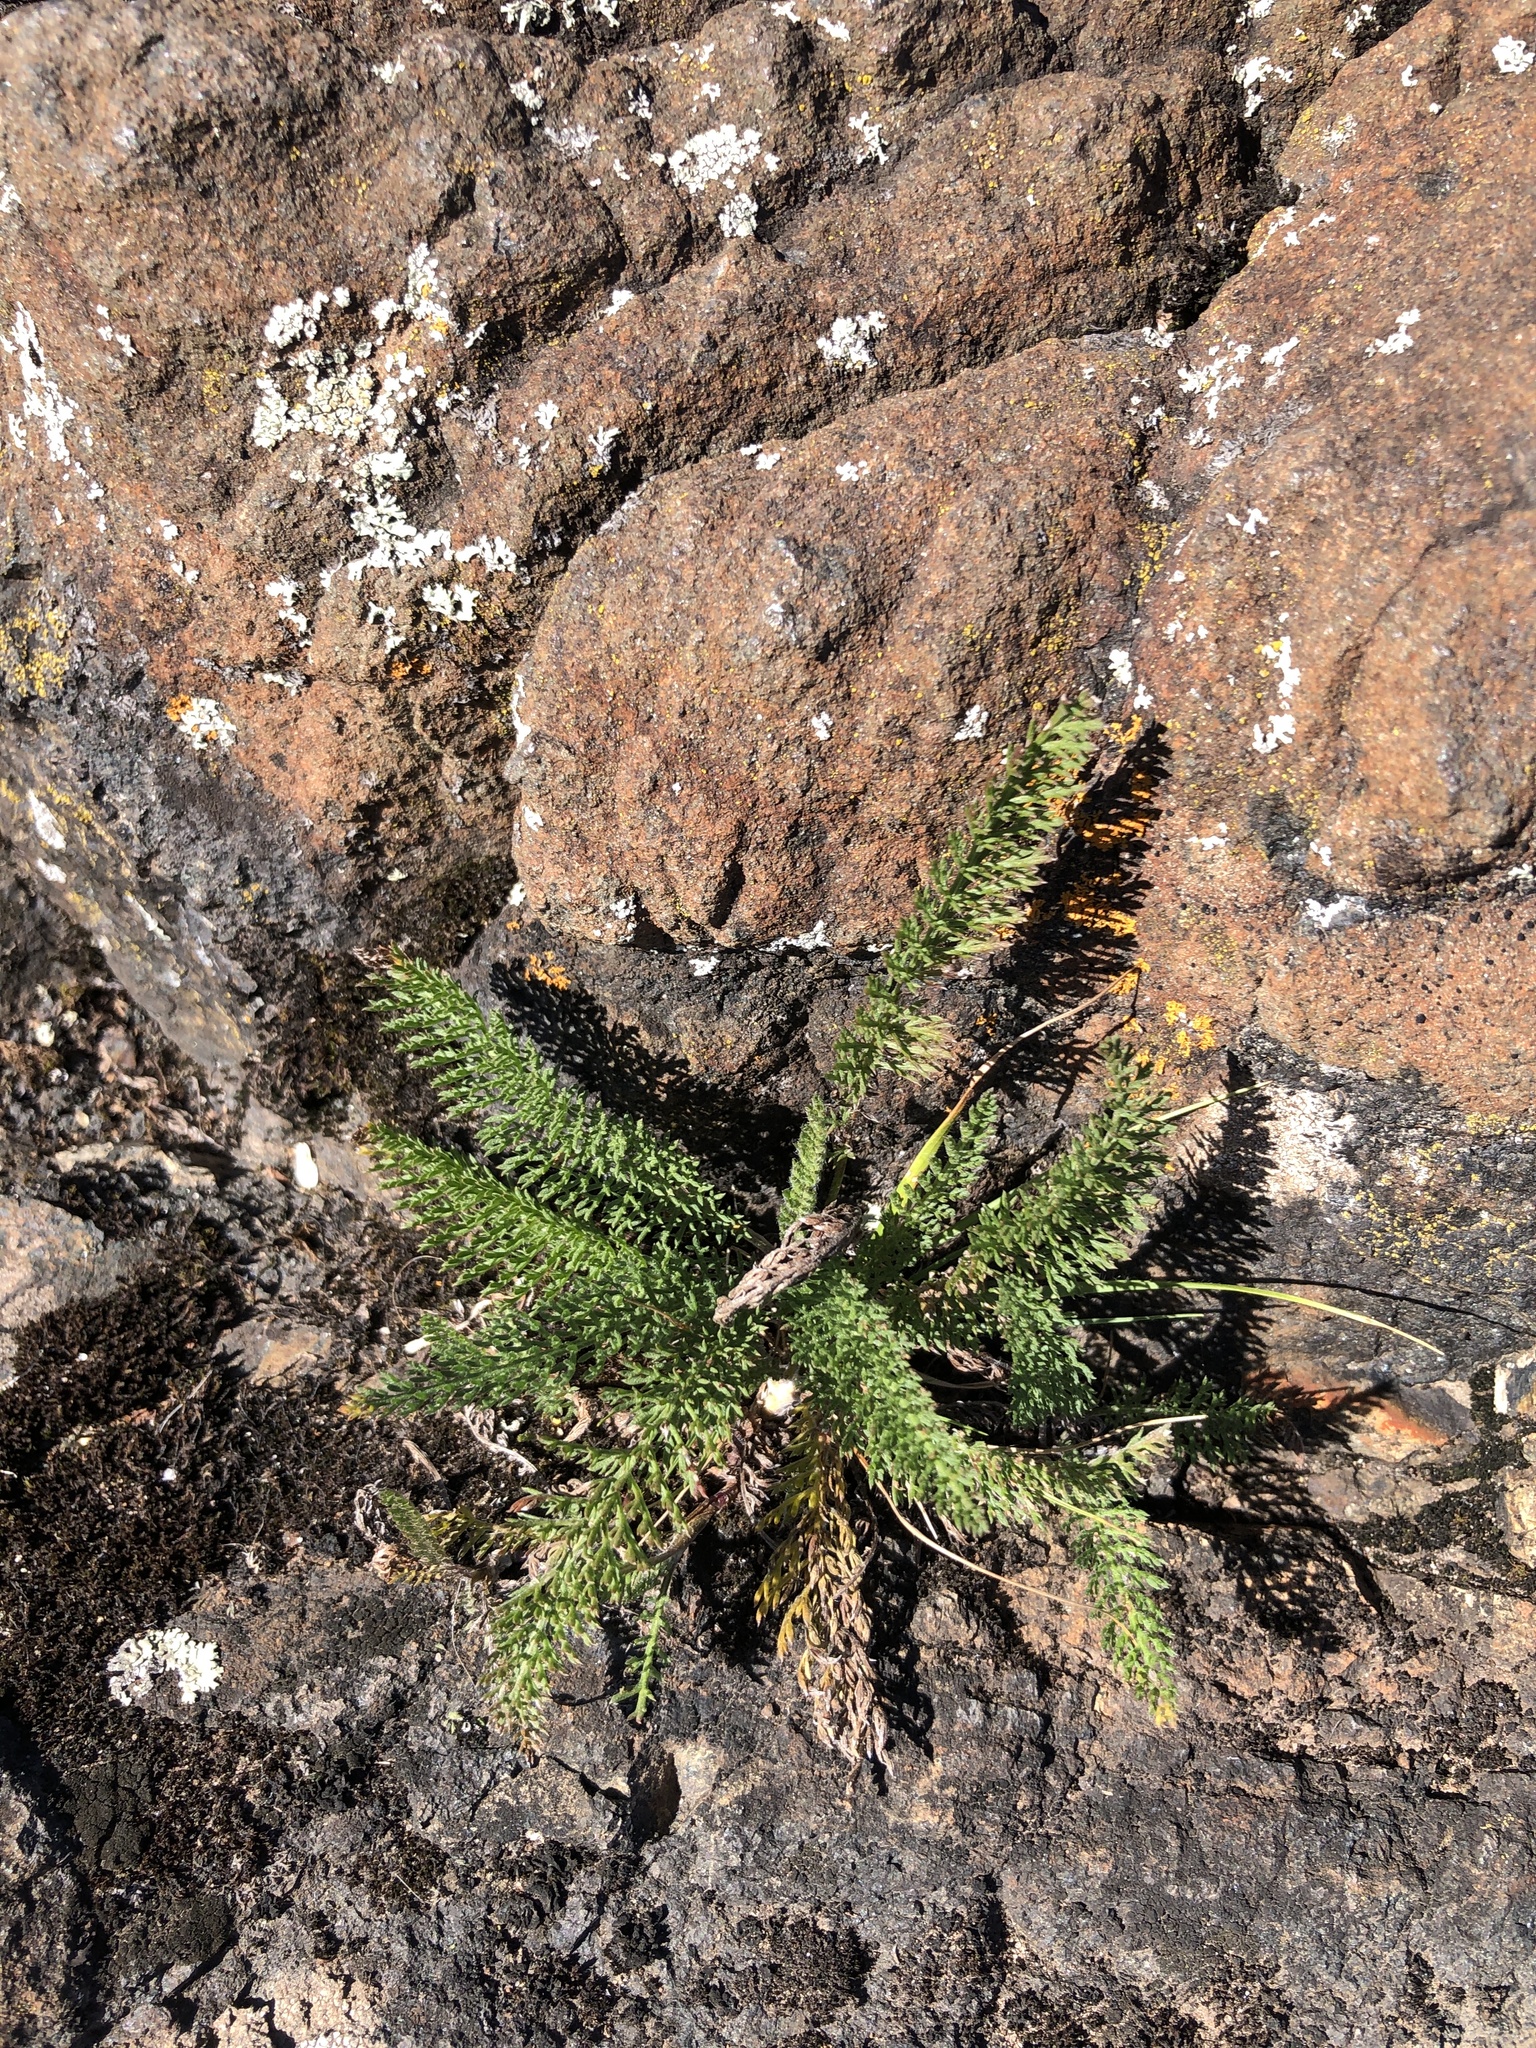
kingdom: Plantae
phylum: Tracheophyta
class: Magnoliopsida
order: Asterales
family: Asteraceae
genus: Achillea
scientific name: Achillea millefolium
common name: Yarrow
